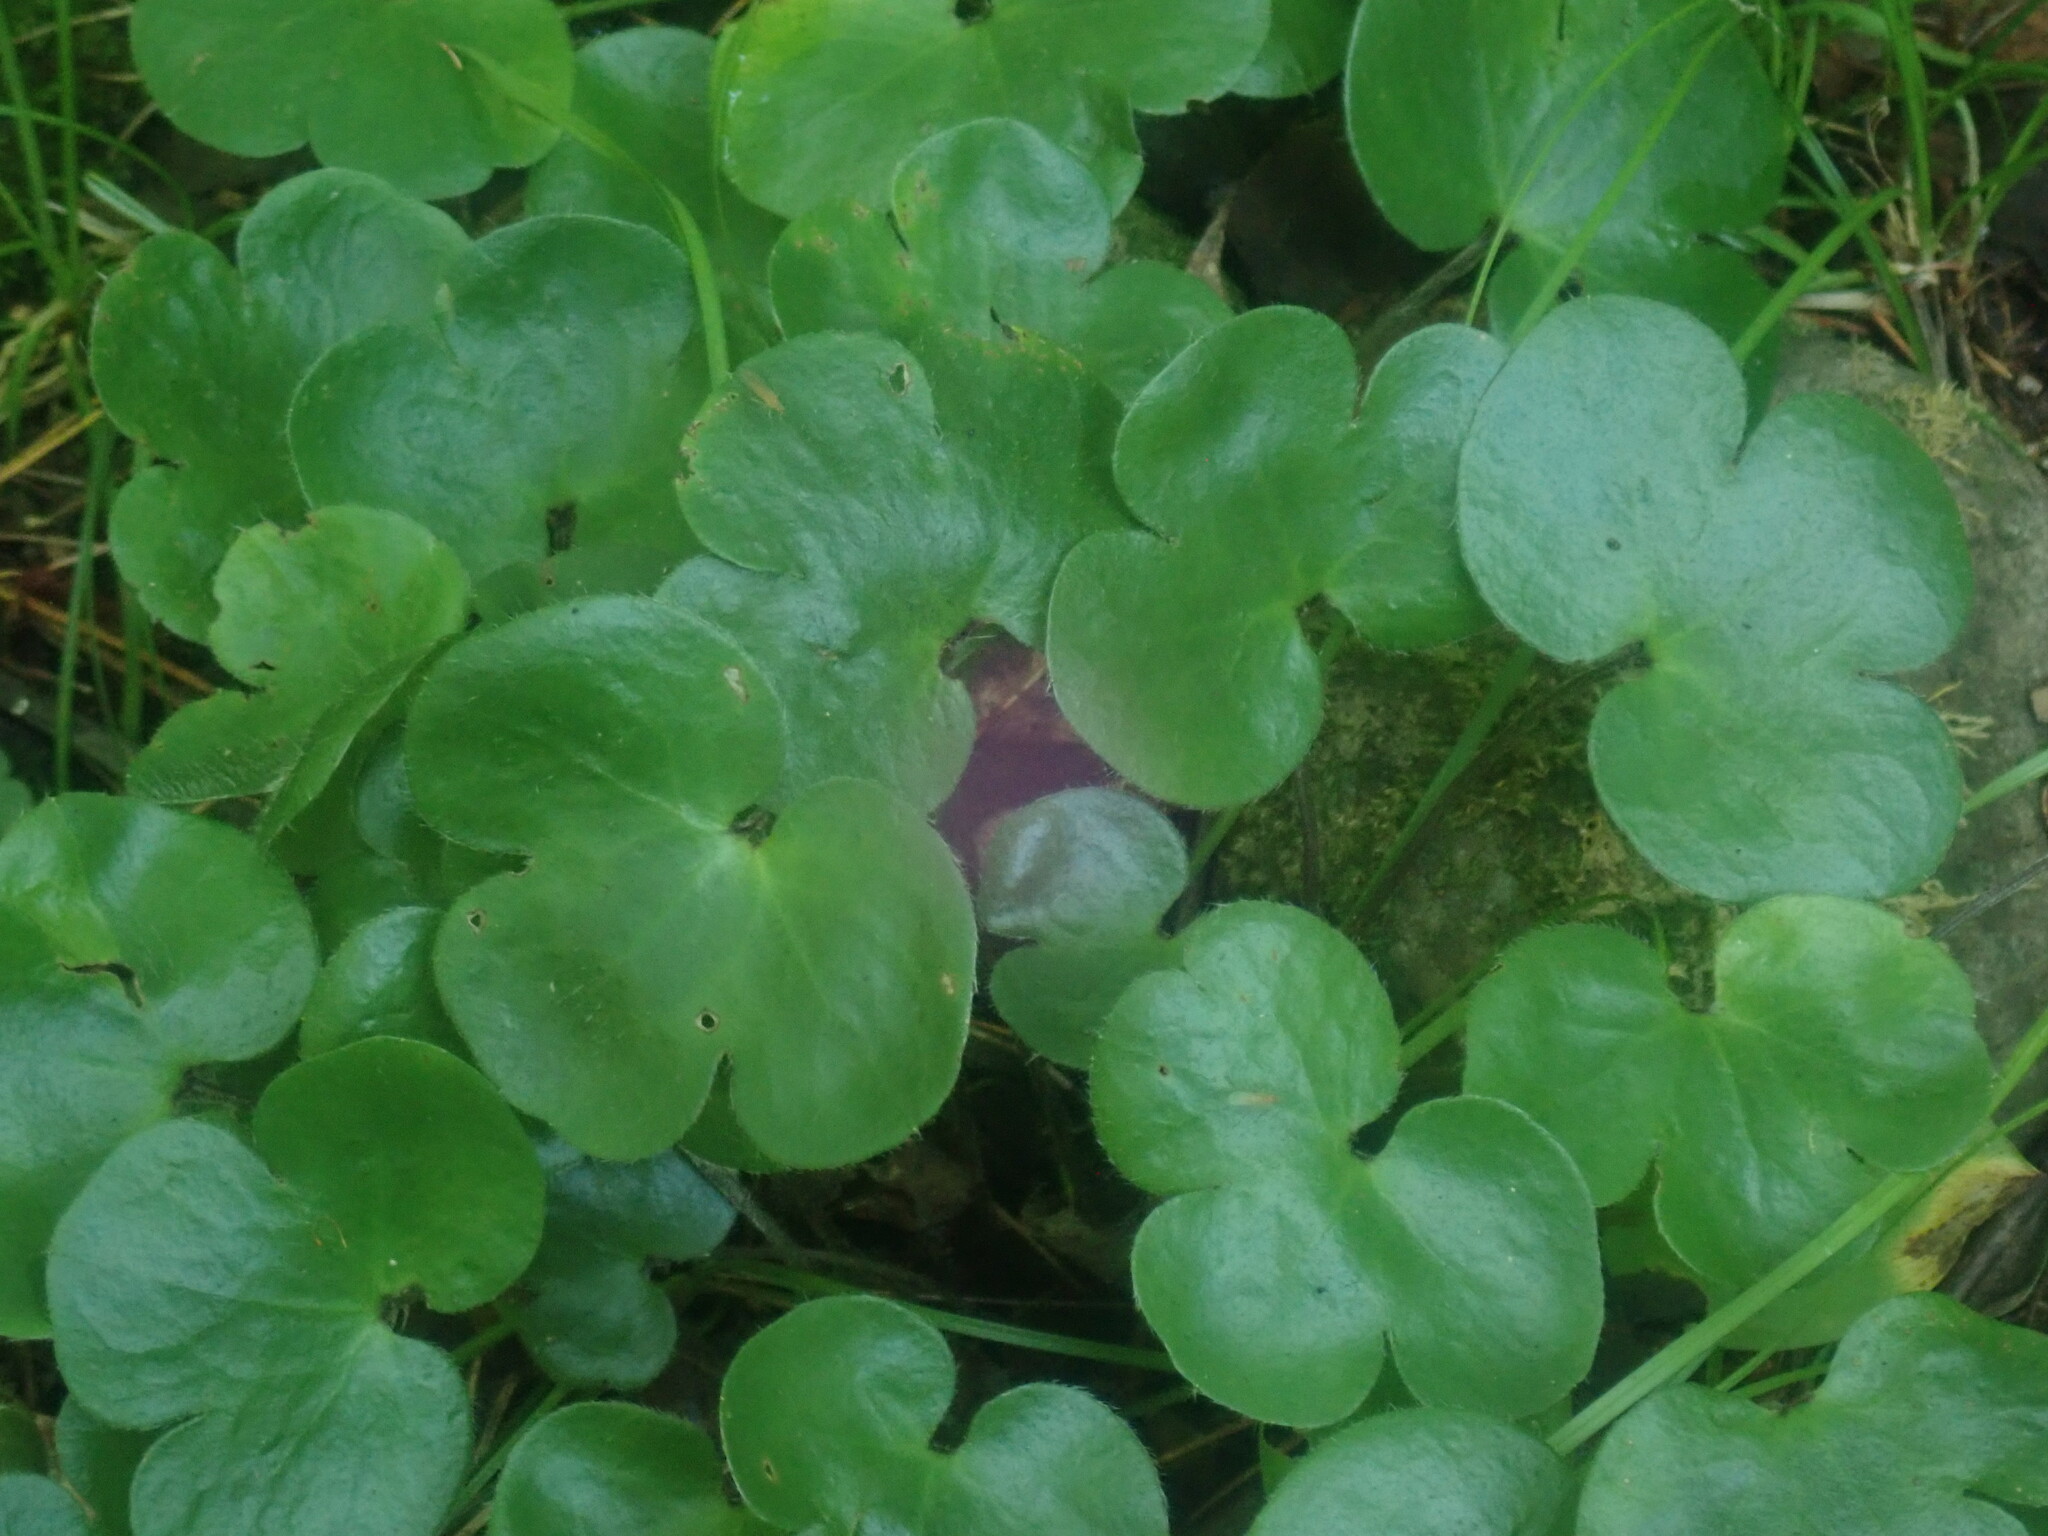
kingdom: Plantae
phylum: Tracheophyta
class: Magnoliopsida
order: Ranunculales
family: Ranunculaceae
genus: Hepatica
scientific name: Hepatica americana
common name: American hepatica
